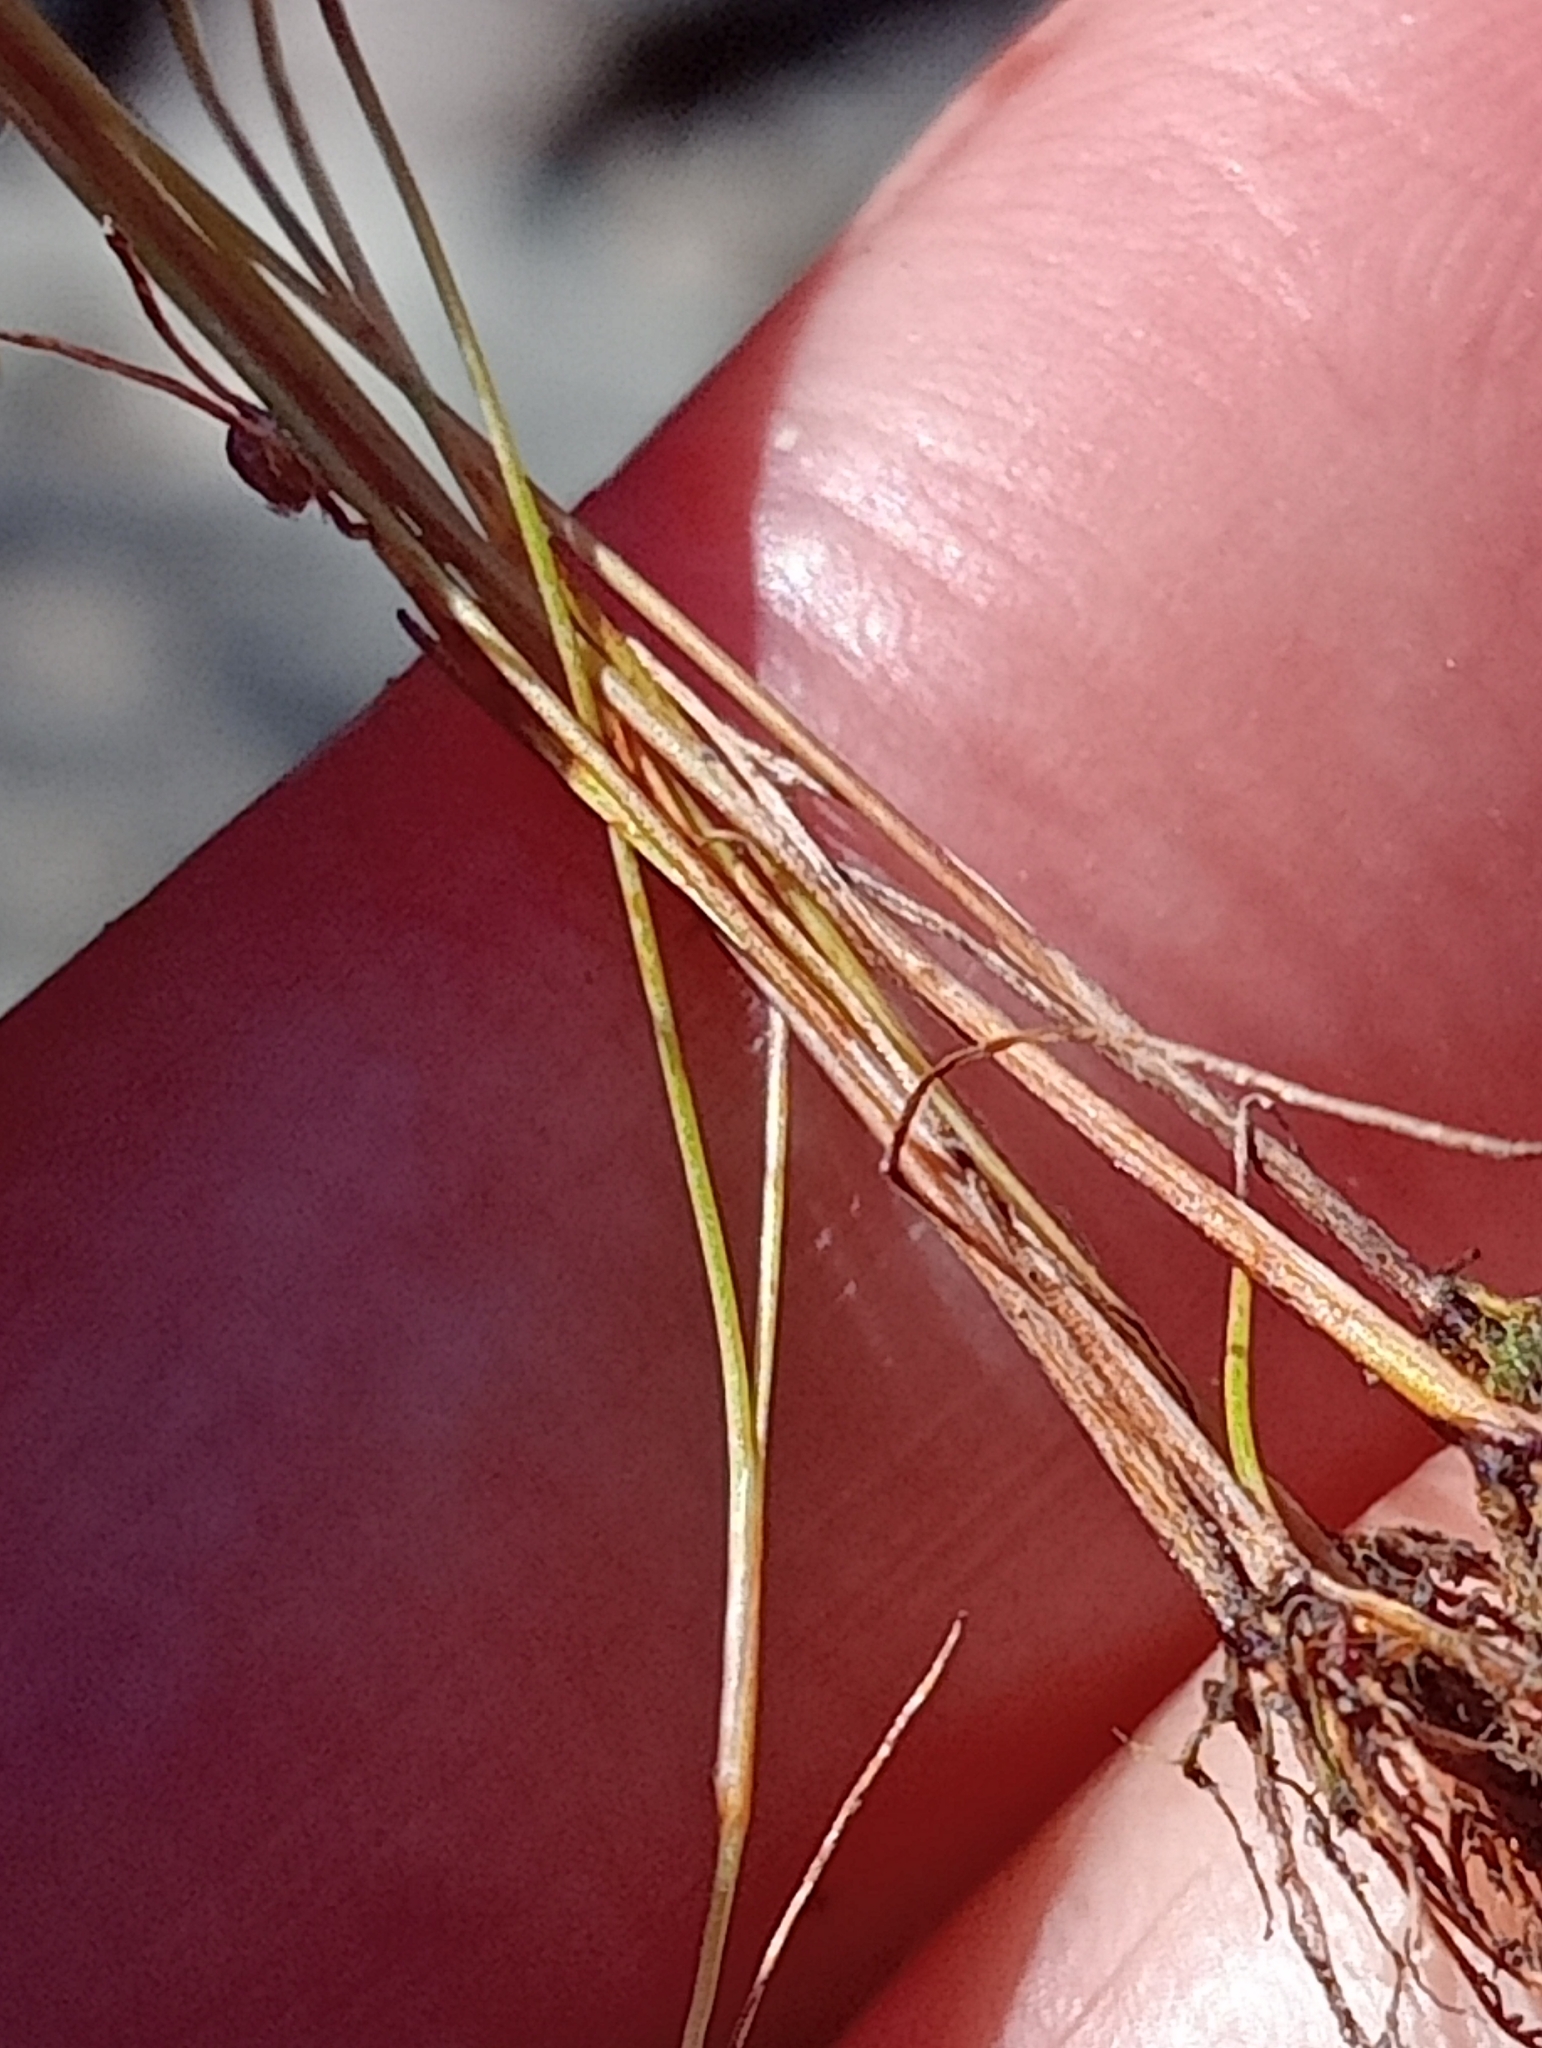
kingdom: Plantae
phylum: Tracheophyta
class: Liliopsida
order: Poales
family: Juncaceae
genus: Juncus
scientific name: Juncus bufonius
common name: Toad rush
